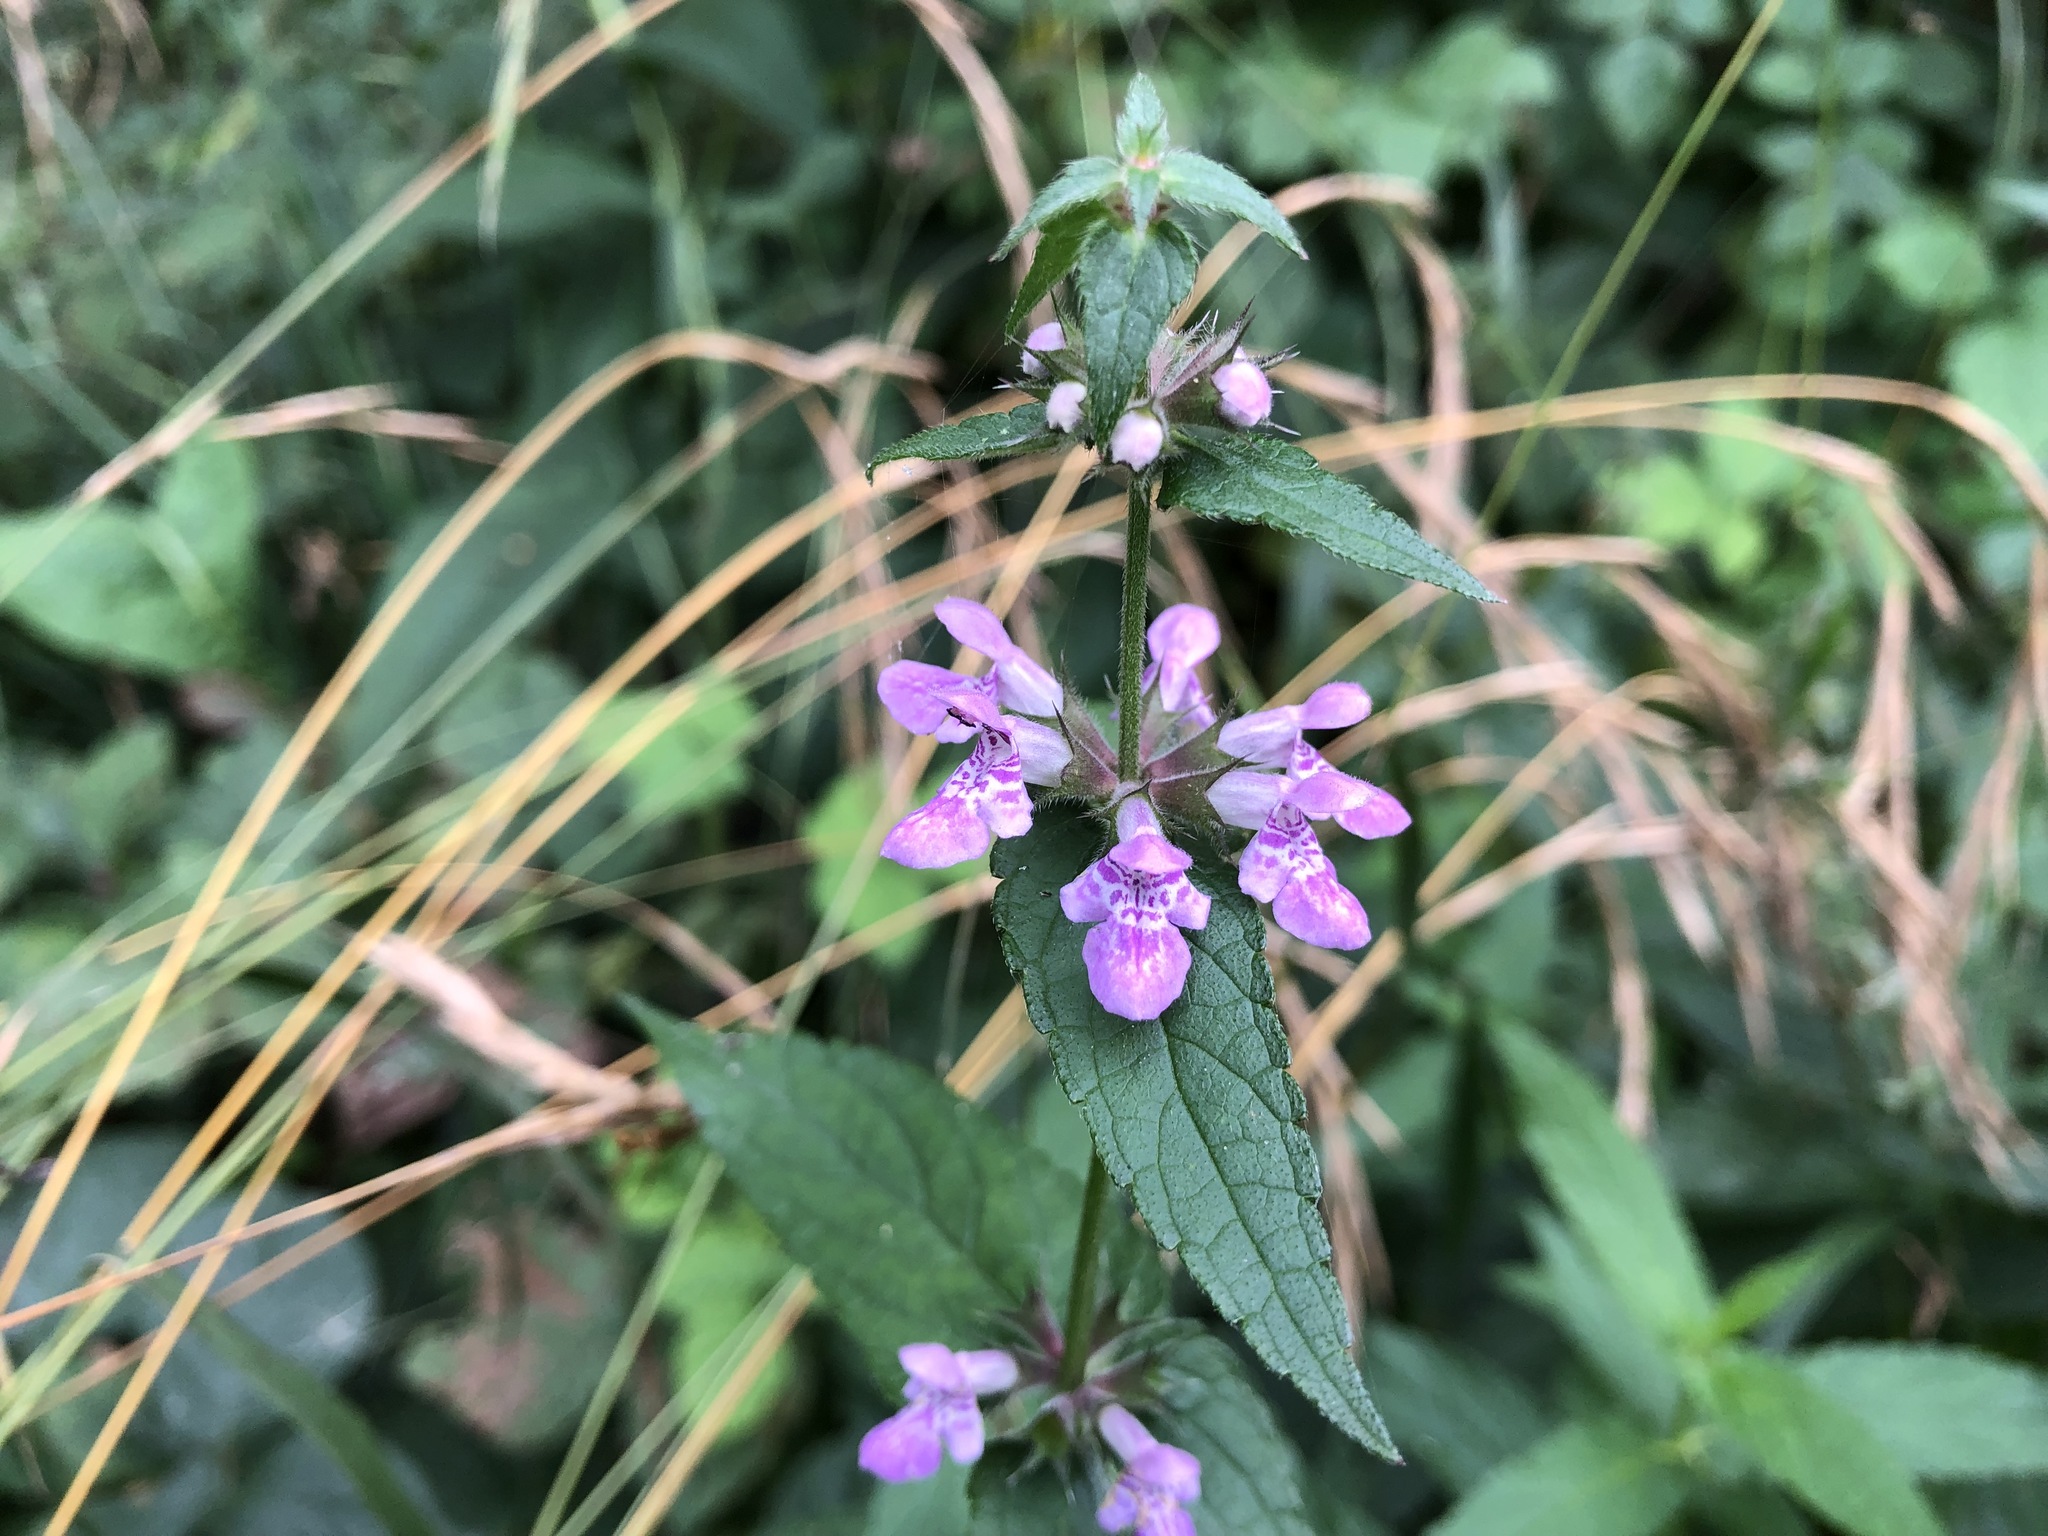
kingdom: Plantae
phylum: Tracheophyta
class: Magnoliopsida
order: Lamiales
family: Lamiaceae
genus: Stachys
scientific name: Stachys palustris
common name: Marsh woundwort
